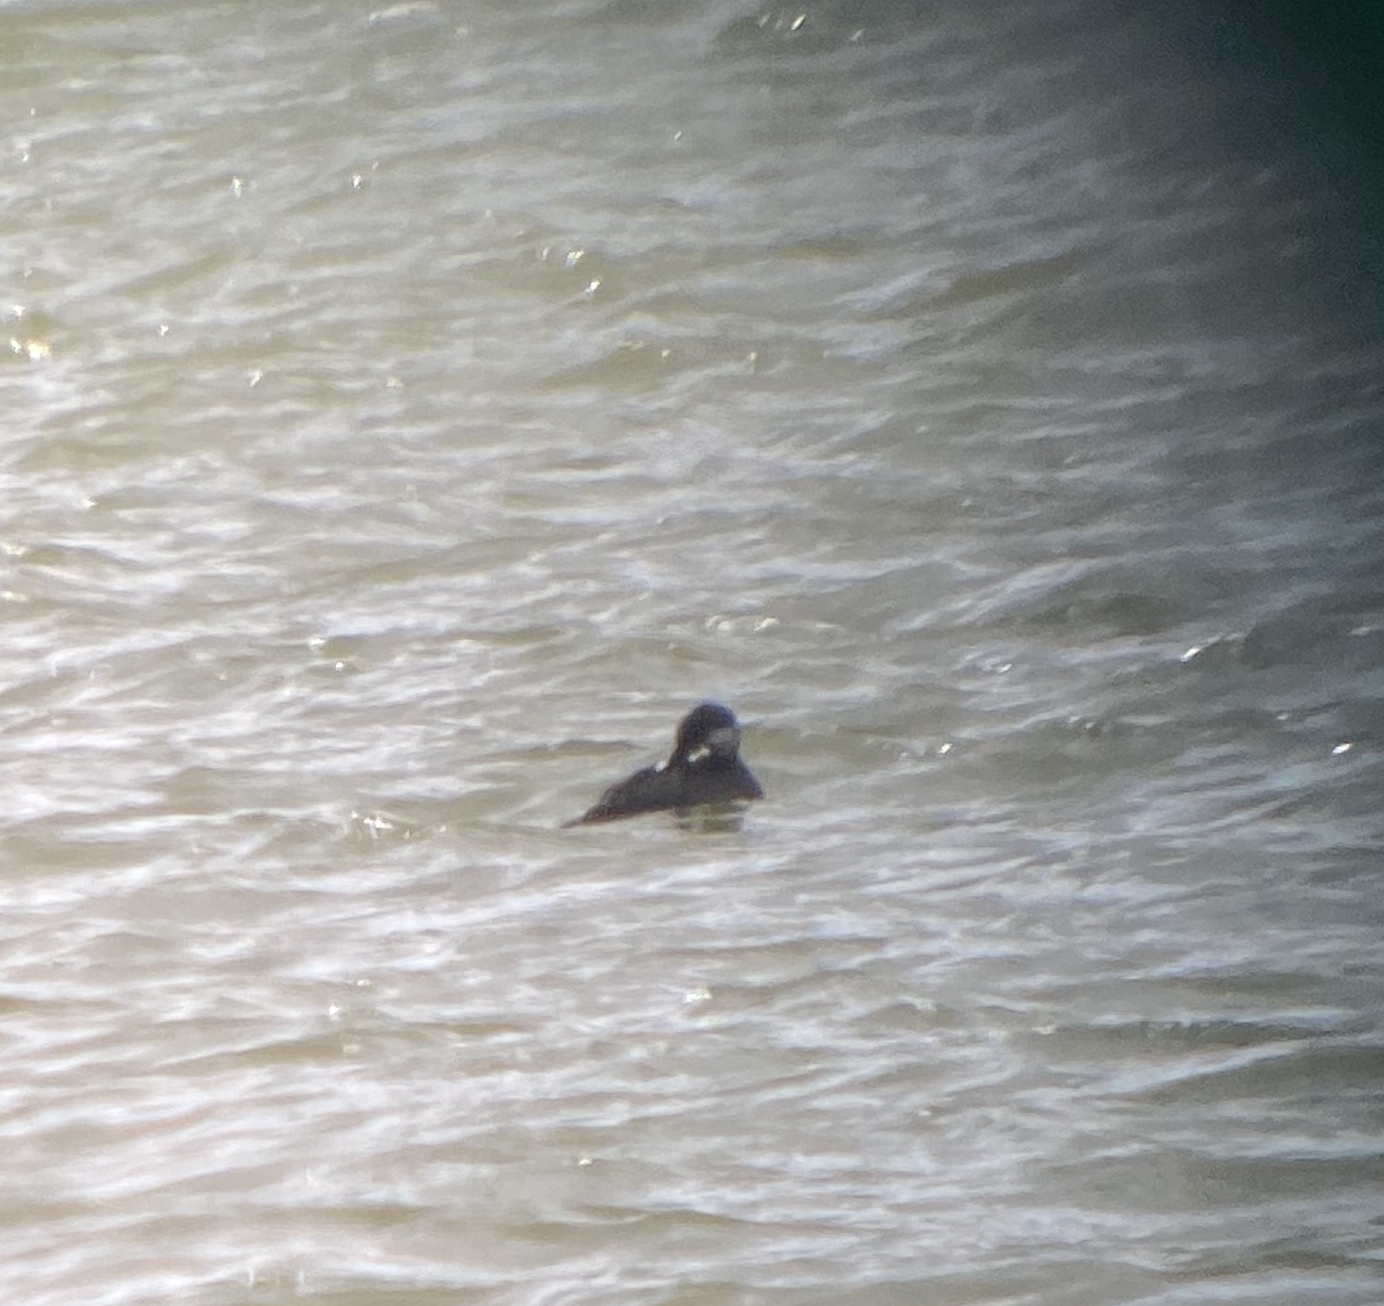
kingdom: Animalia
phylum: Chordata
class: Aves
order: Anseriformes
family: Anatidae
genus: Melanitta
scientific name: Melanitta americana
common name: Black scoter
